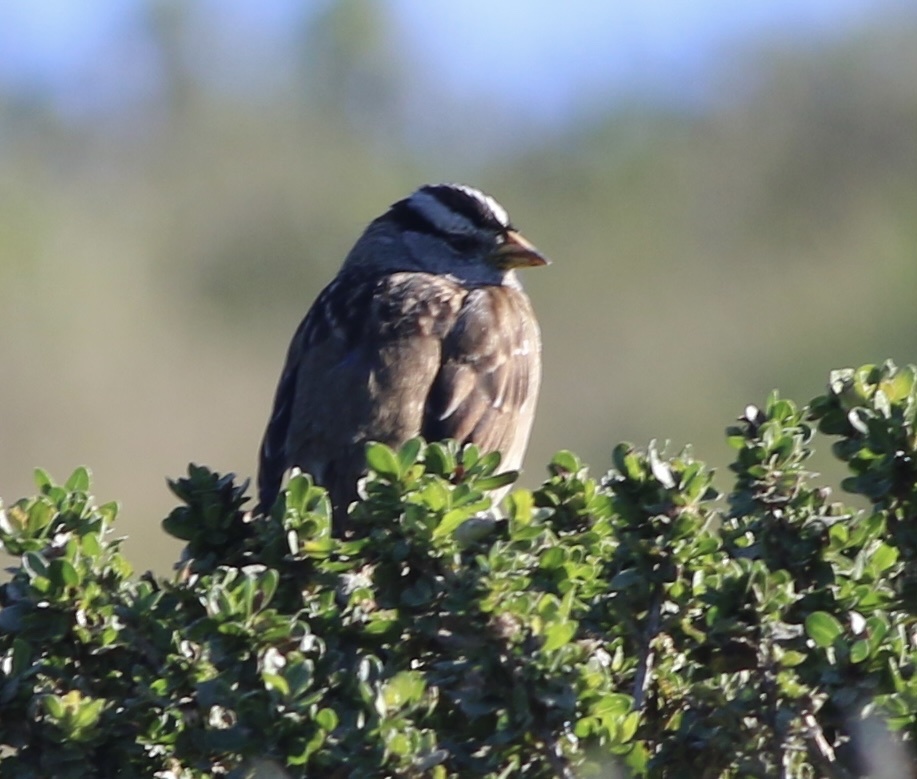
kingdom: Animalia
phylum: Chordata
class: Aves
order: Passeriformes
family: Passerellidae
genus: Zonotrichia
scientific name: Zonotrichia leucophrys
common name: White-crowned sparrow
